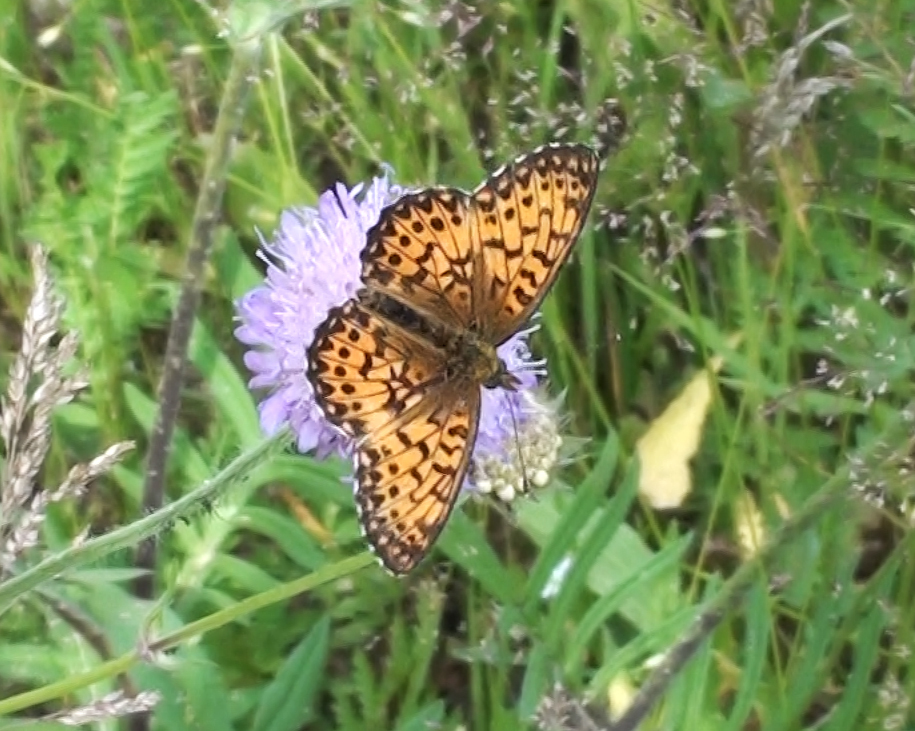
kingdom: Animalia
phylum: Arthropoda
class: Insecta
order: Lepidoptera
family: Nymphalidae
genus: Boloria
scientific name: Boloria titania
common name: Titania's fritillary
